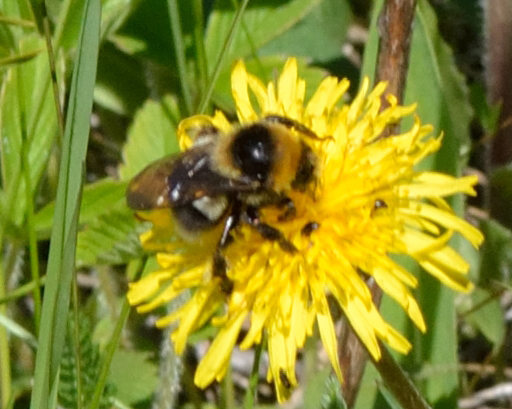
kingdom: Animalia
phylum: Arthropoda
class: Insecta
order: Hymenoptera
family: Apidae
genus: Bombus
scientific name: Bombus semenoviellus
